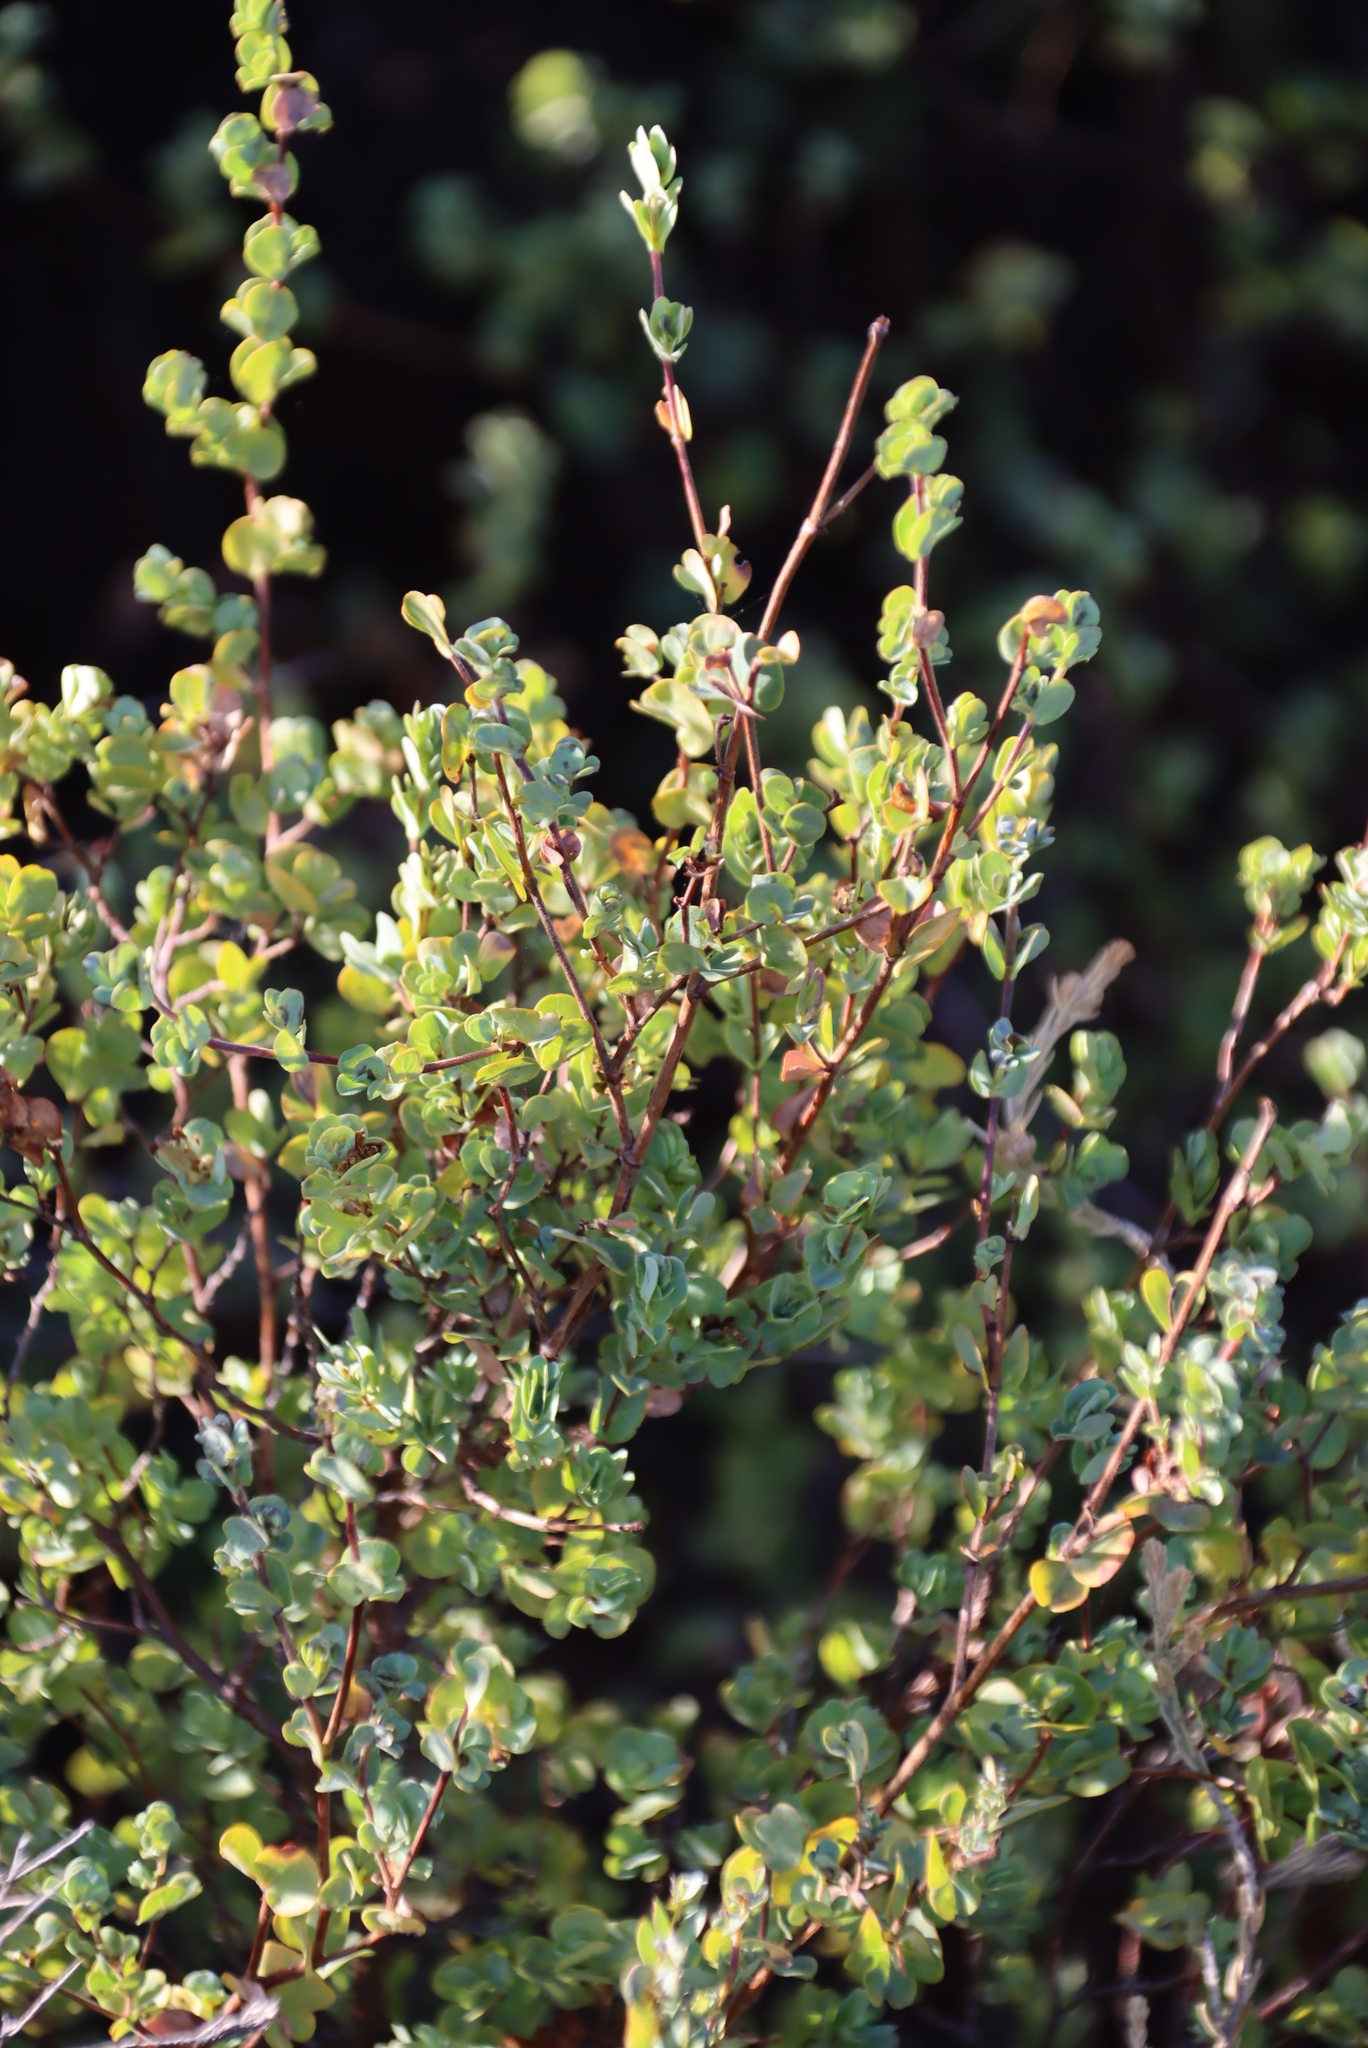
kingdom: Plantae
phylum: Tracheophyta
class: Magnoliopsida
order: Rosales
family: Rosaceae
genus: Cliffortia
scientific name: Cliffortia obcordata
